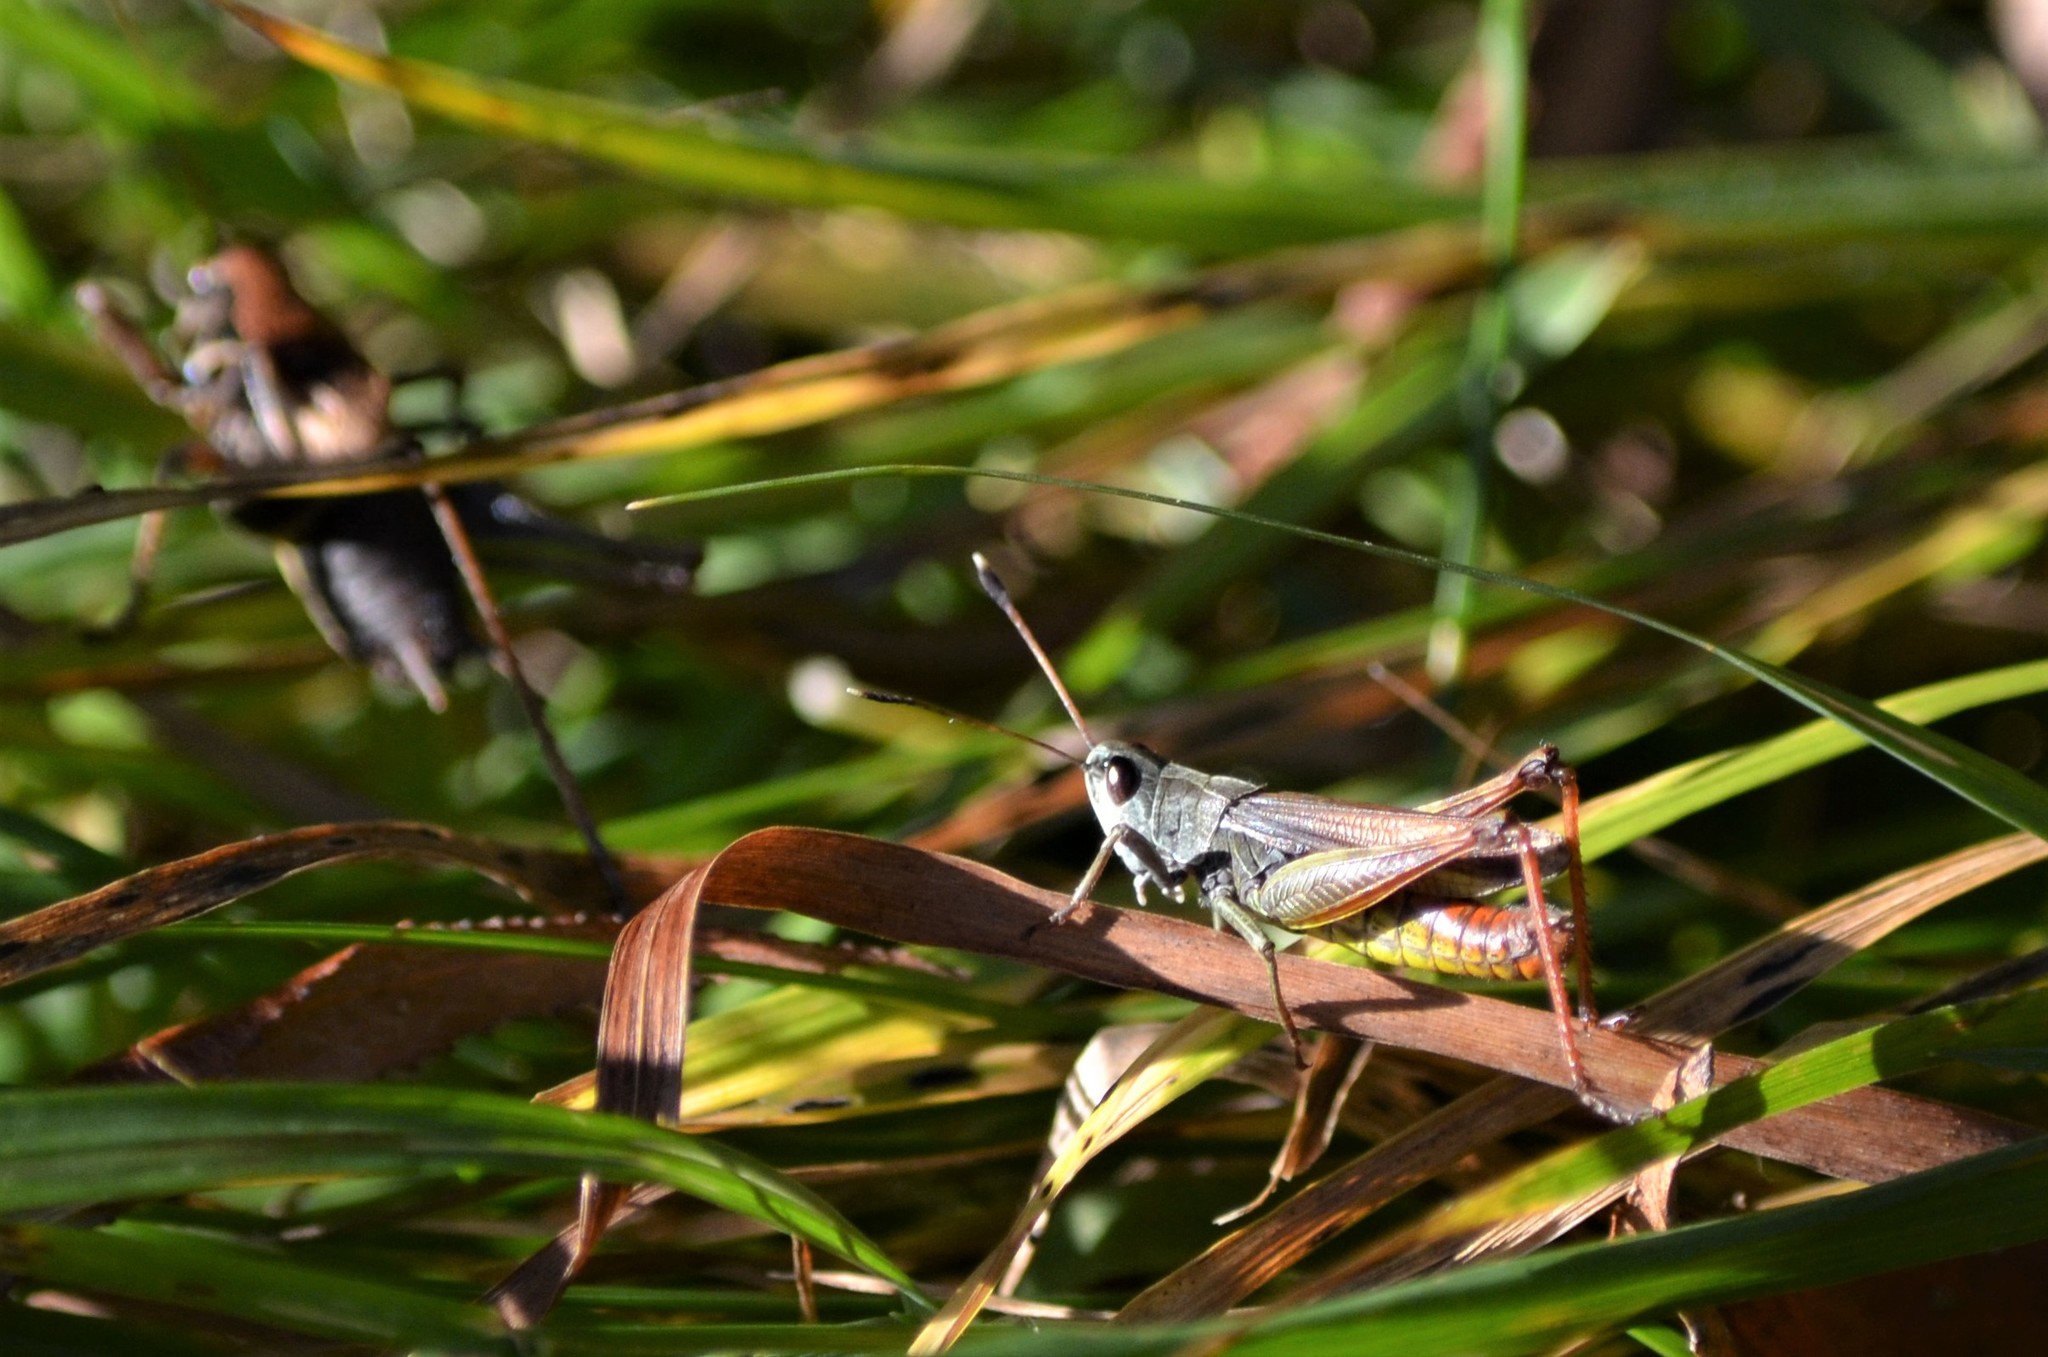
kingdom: Animalia
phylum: Arthropoda
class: Insecta
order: Orthoptera
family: Acrididae
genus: Gomphocerippus
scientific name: Gomphocerippus rufus
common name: Rufous grasshopper
